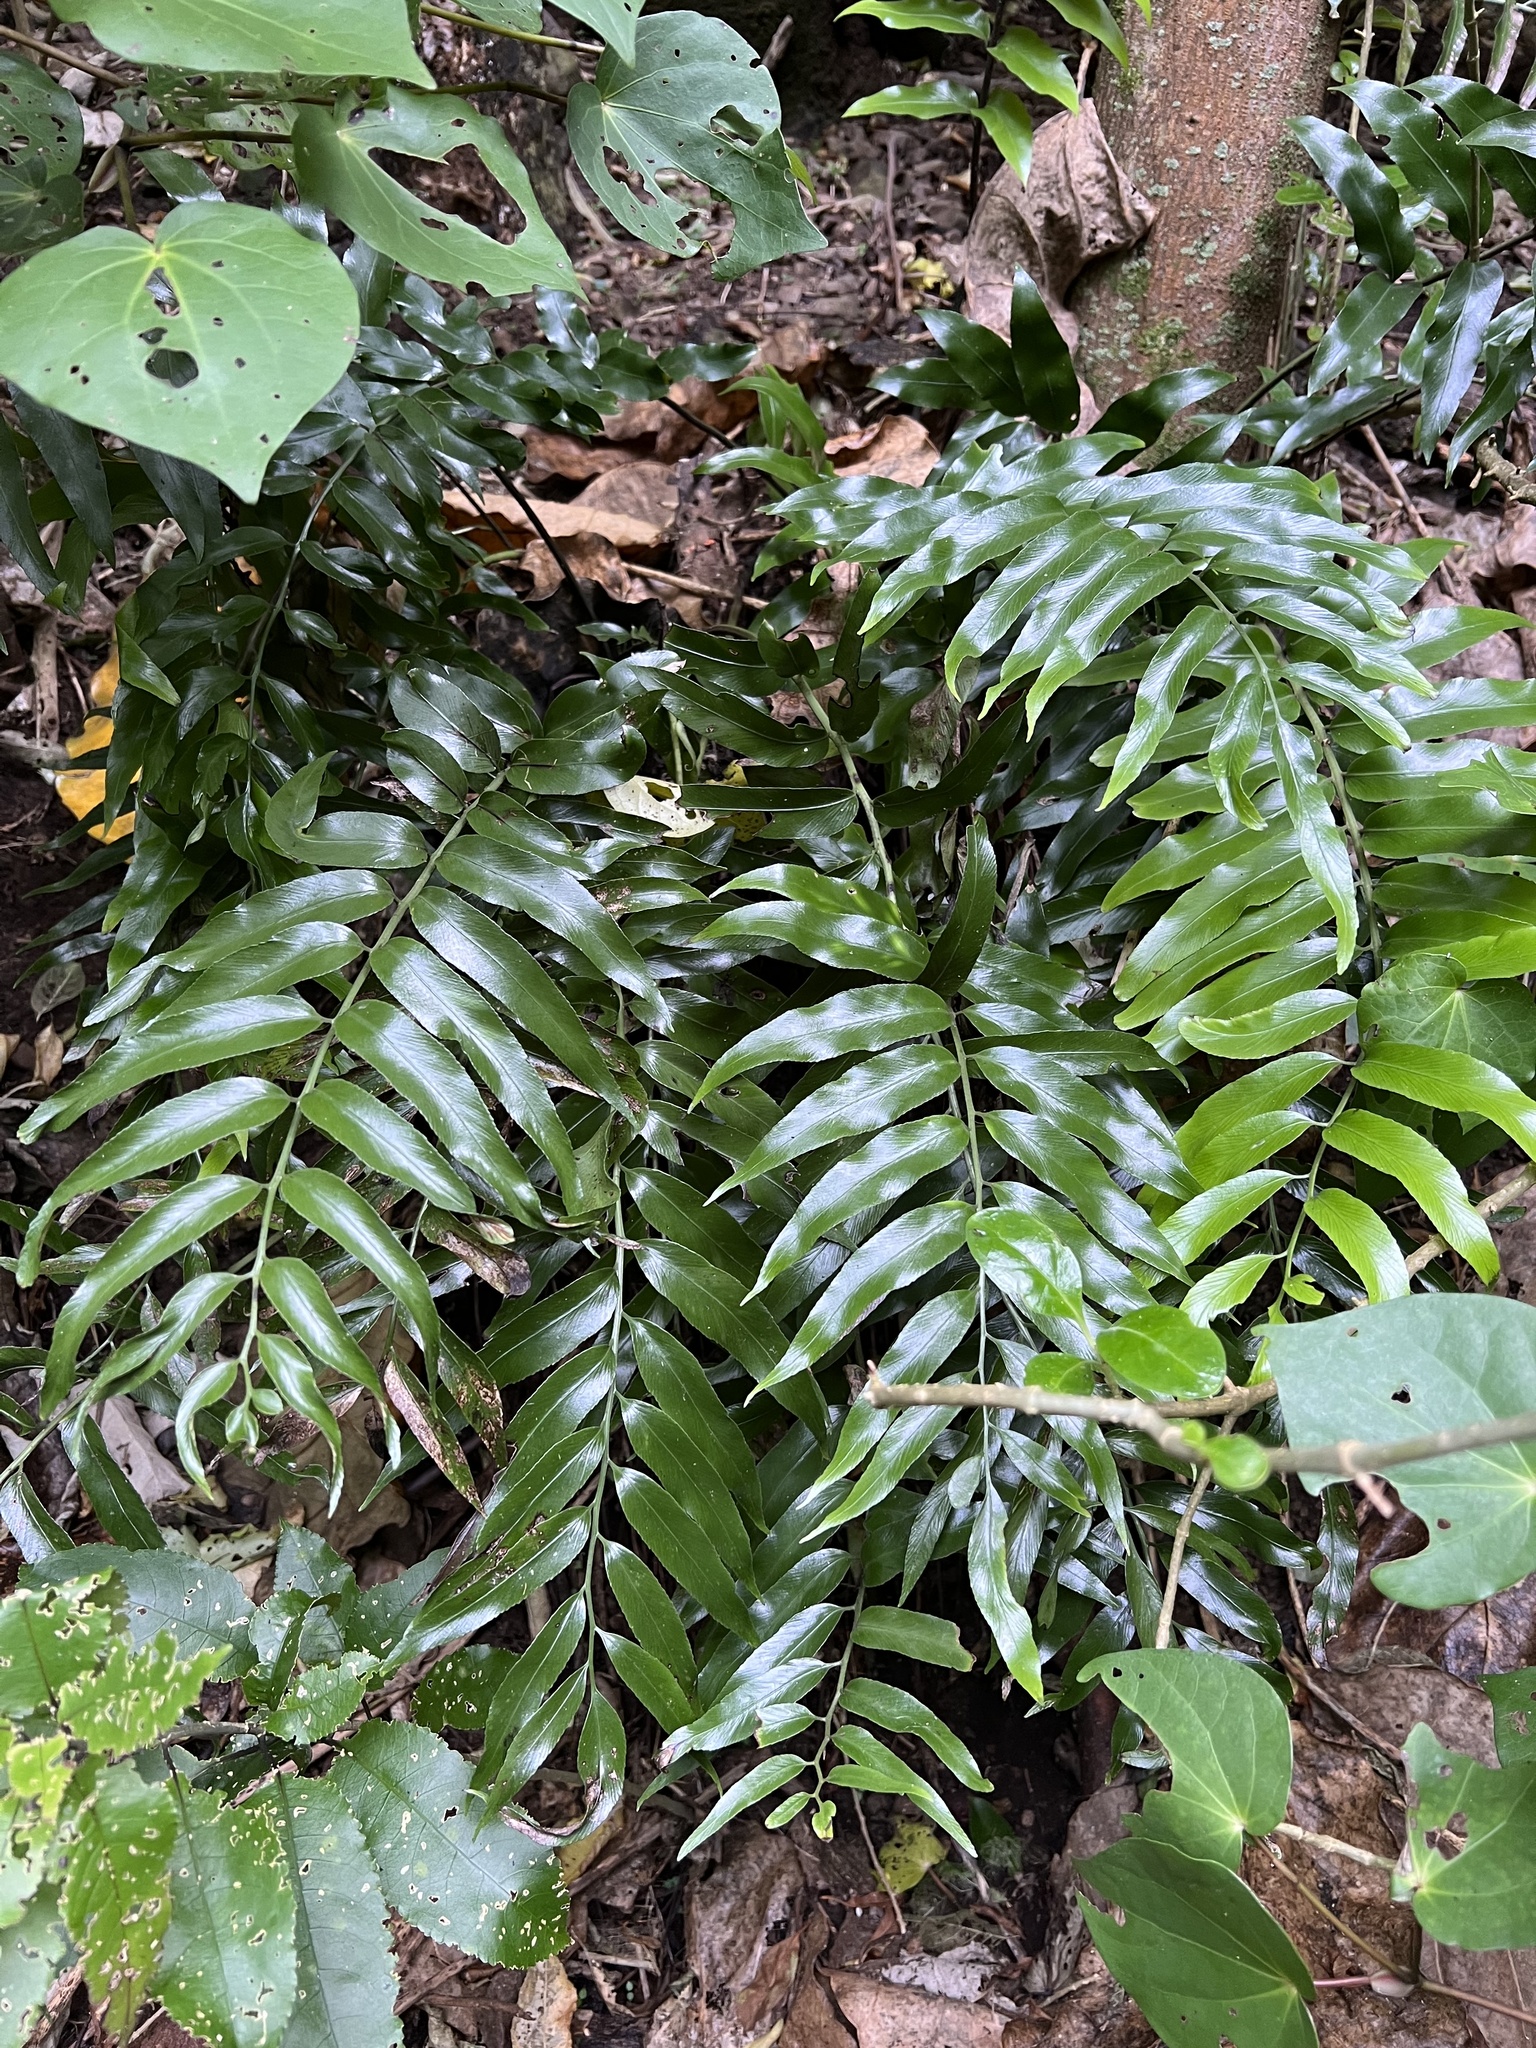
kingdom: Plantae
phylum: Tracheophyta
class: Polypodiopsida
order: Polypodiales
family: Aspleniaceae
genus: Asplenium
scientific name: Asplenium oblongifolium
